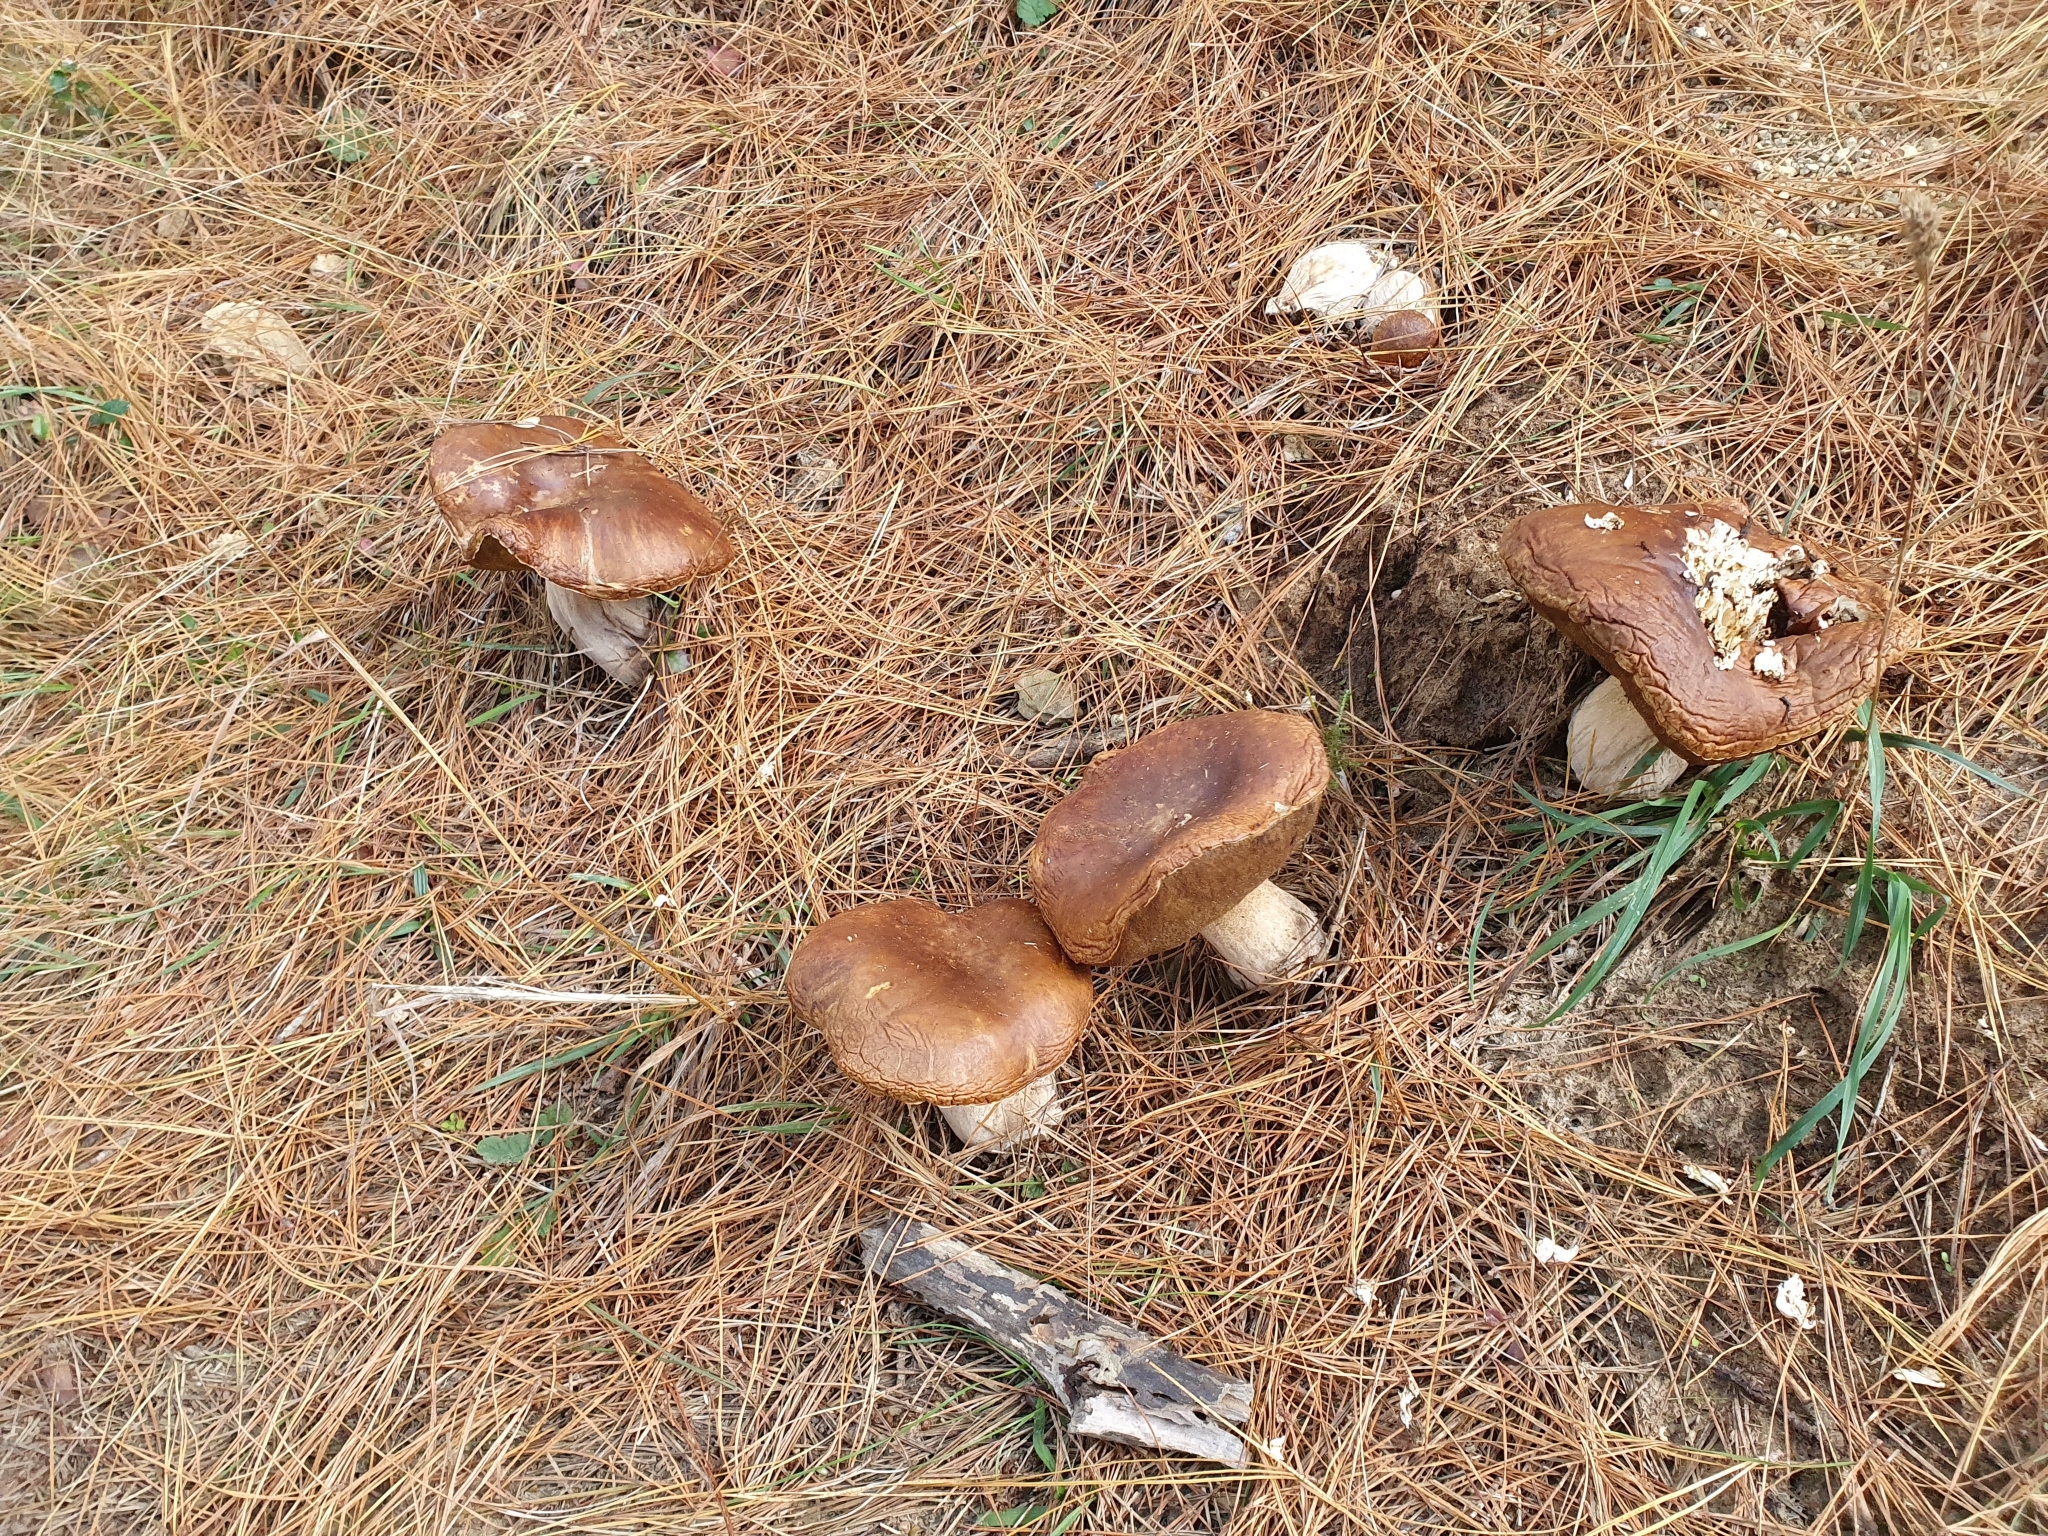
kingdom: Fungi
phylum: Basidiomycota
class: Agaricomycetes
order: Boletales
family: Boletaceae
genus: Boletus
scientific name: Boletus edulis
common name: Cep
